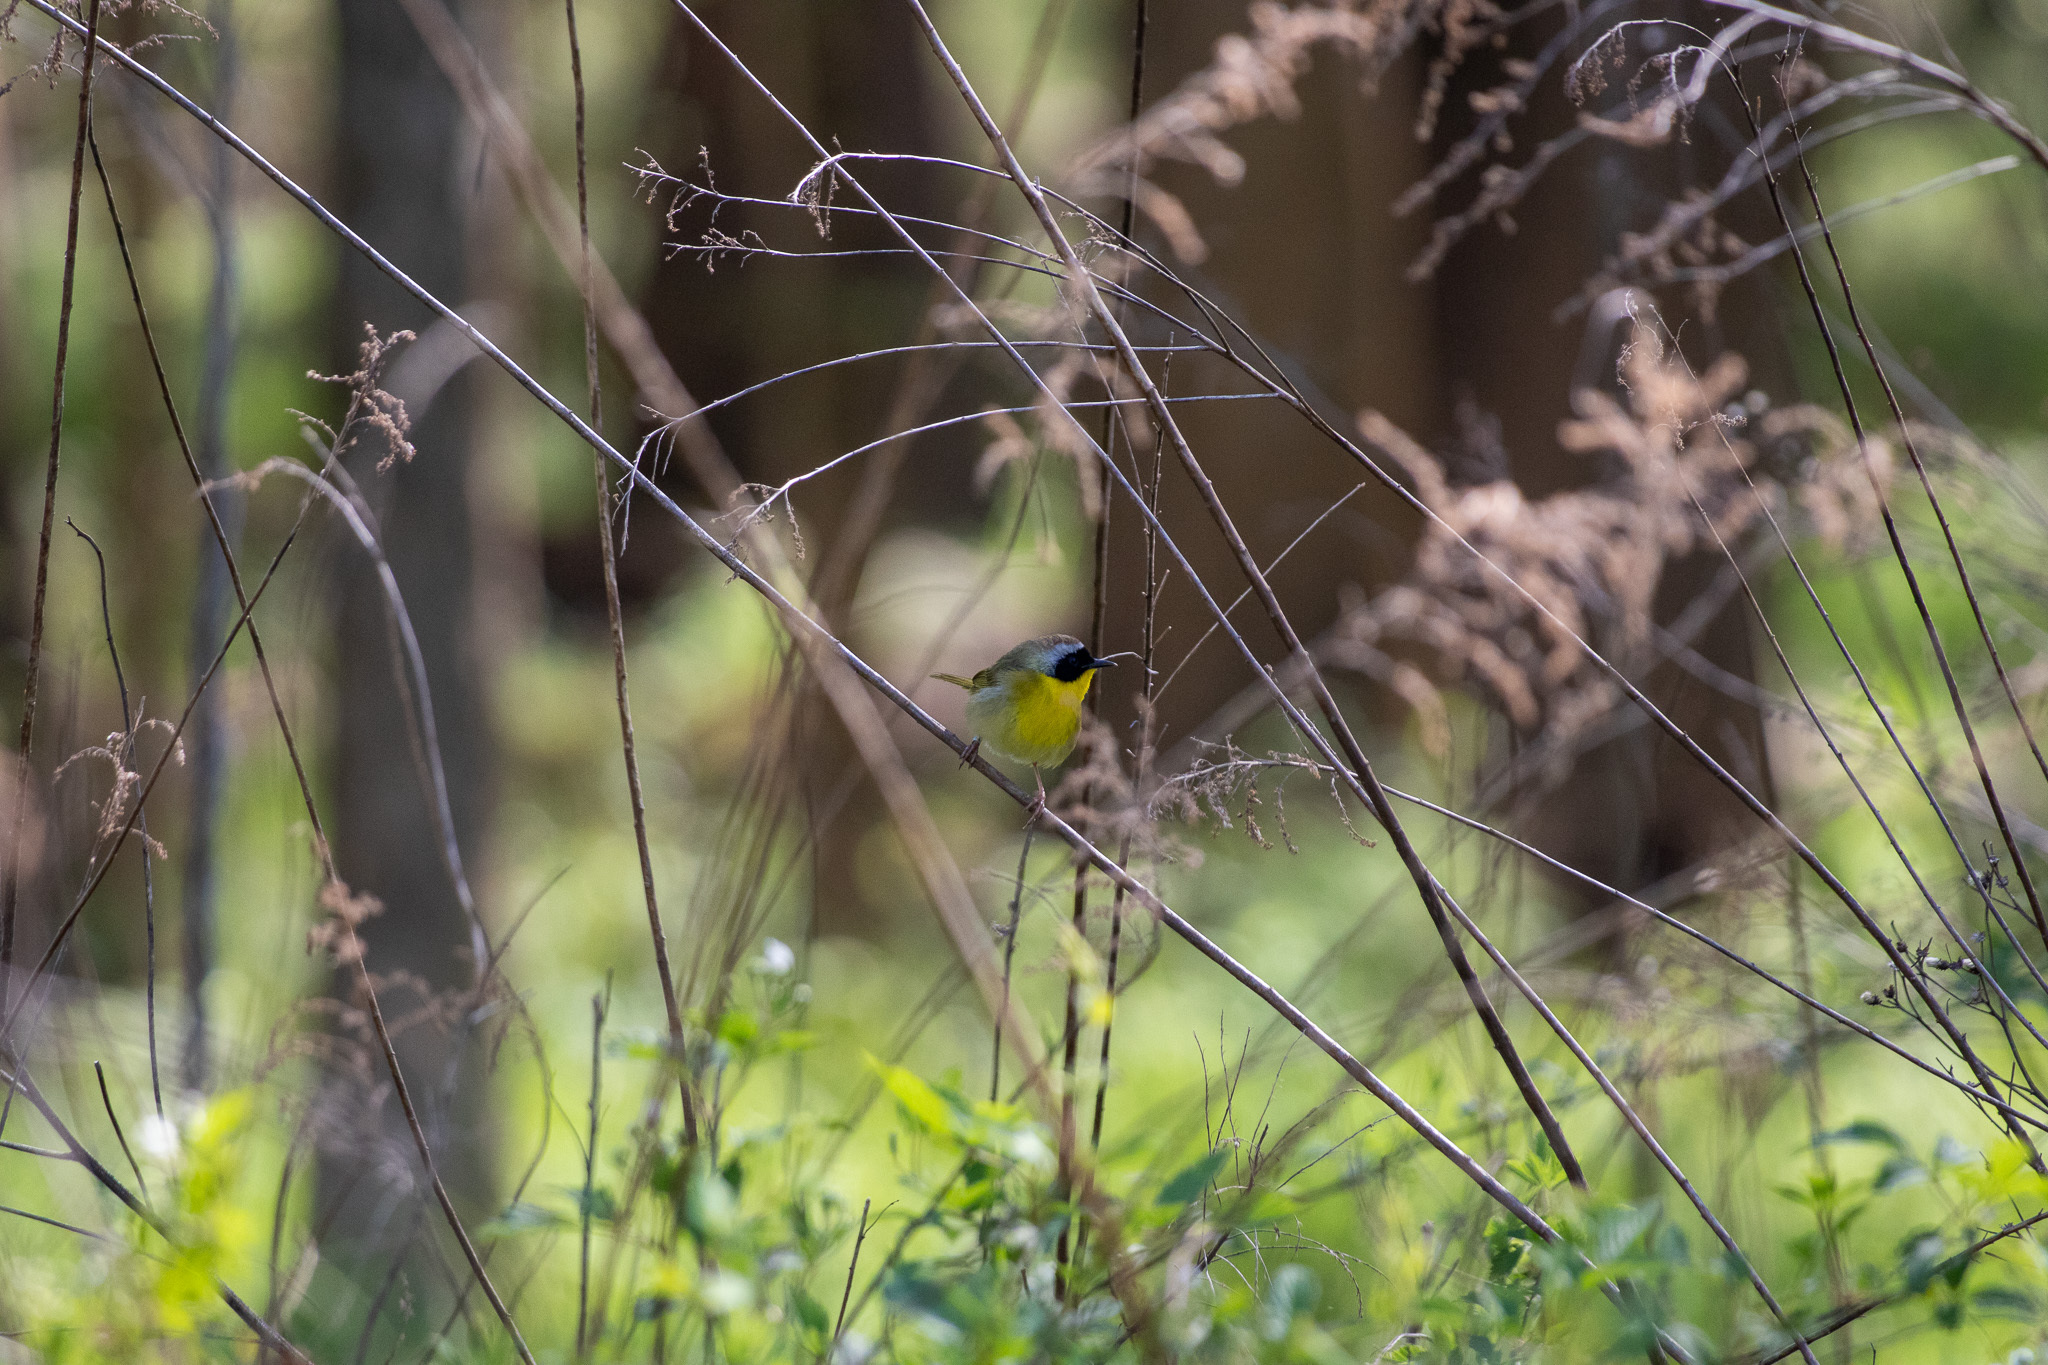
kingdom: Animalia
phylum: Chordata
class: Aves
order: Passeriformes
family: Parulidae
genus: Geothlypis
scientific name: Geothlypis trichas
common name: Common yellowthroat
